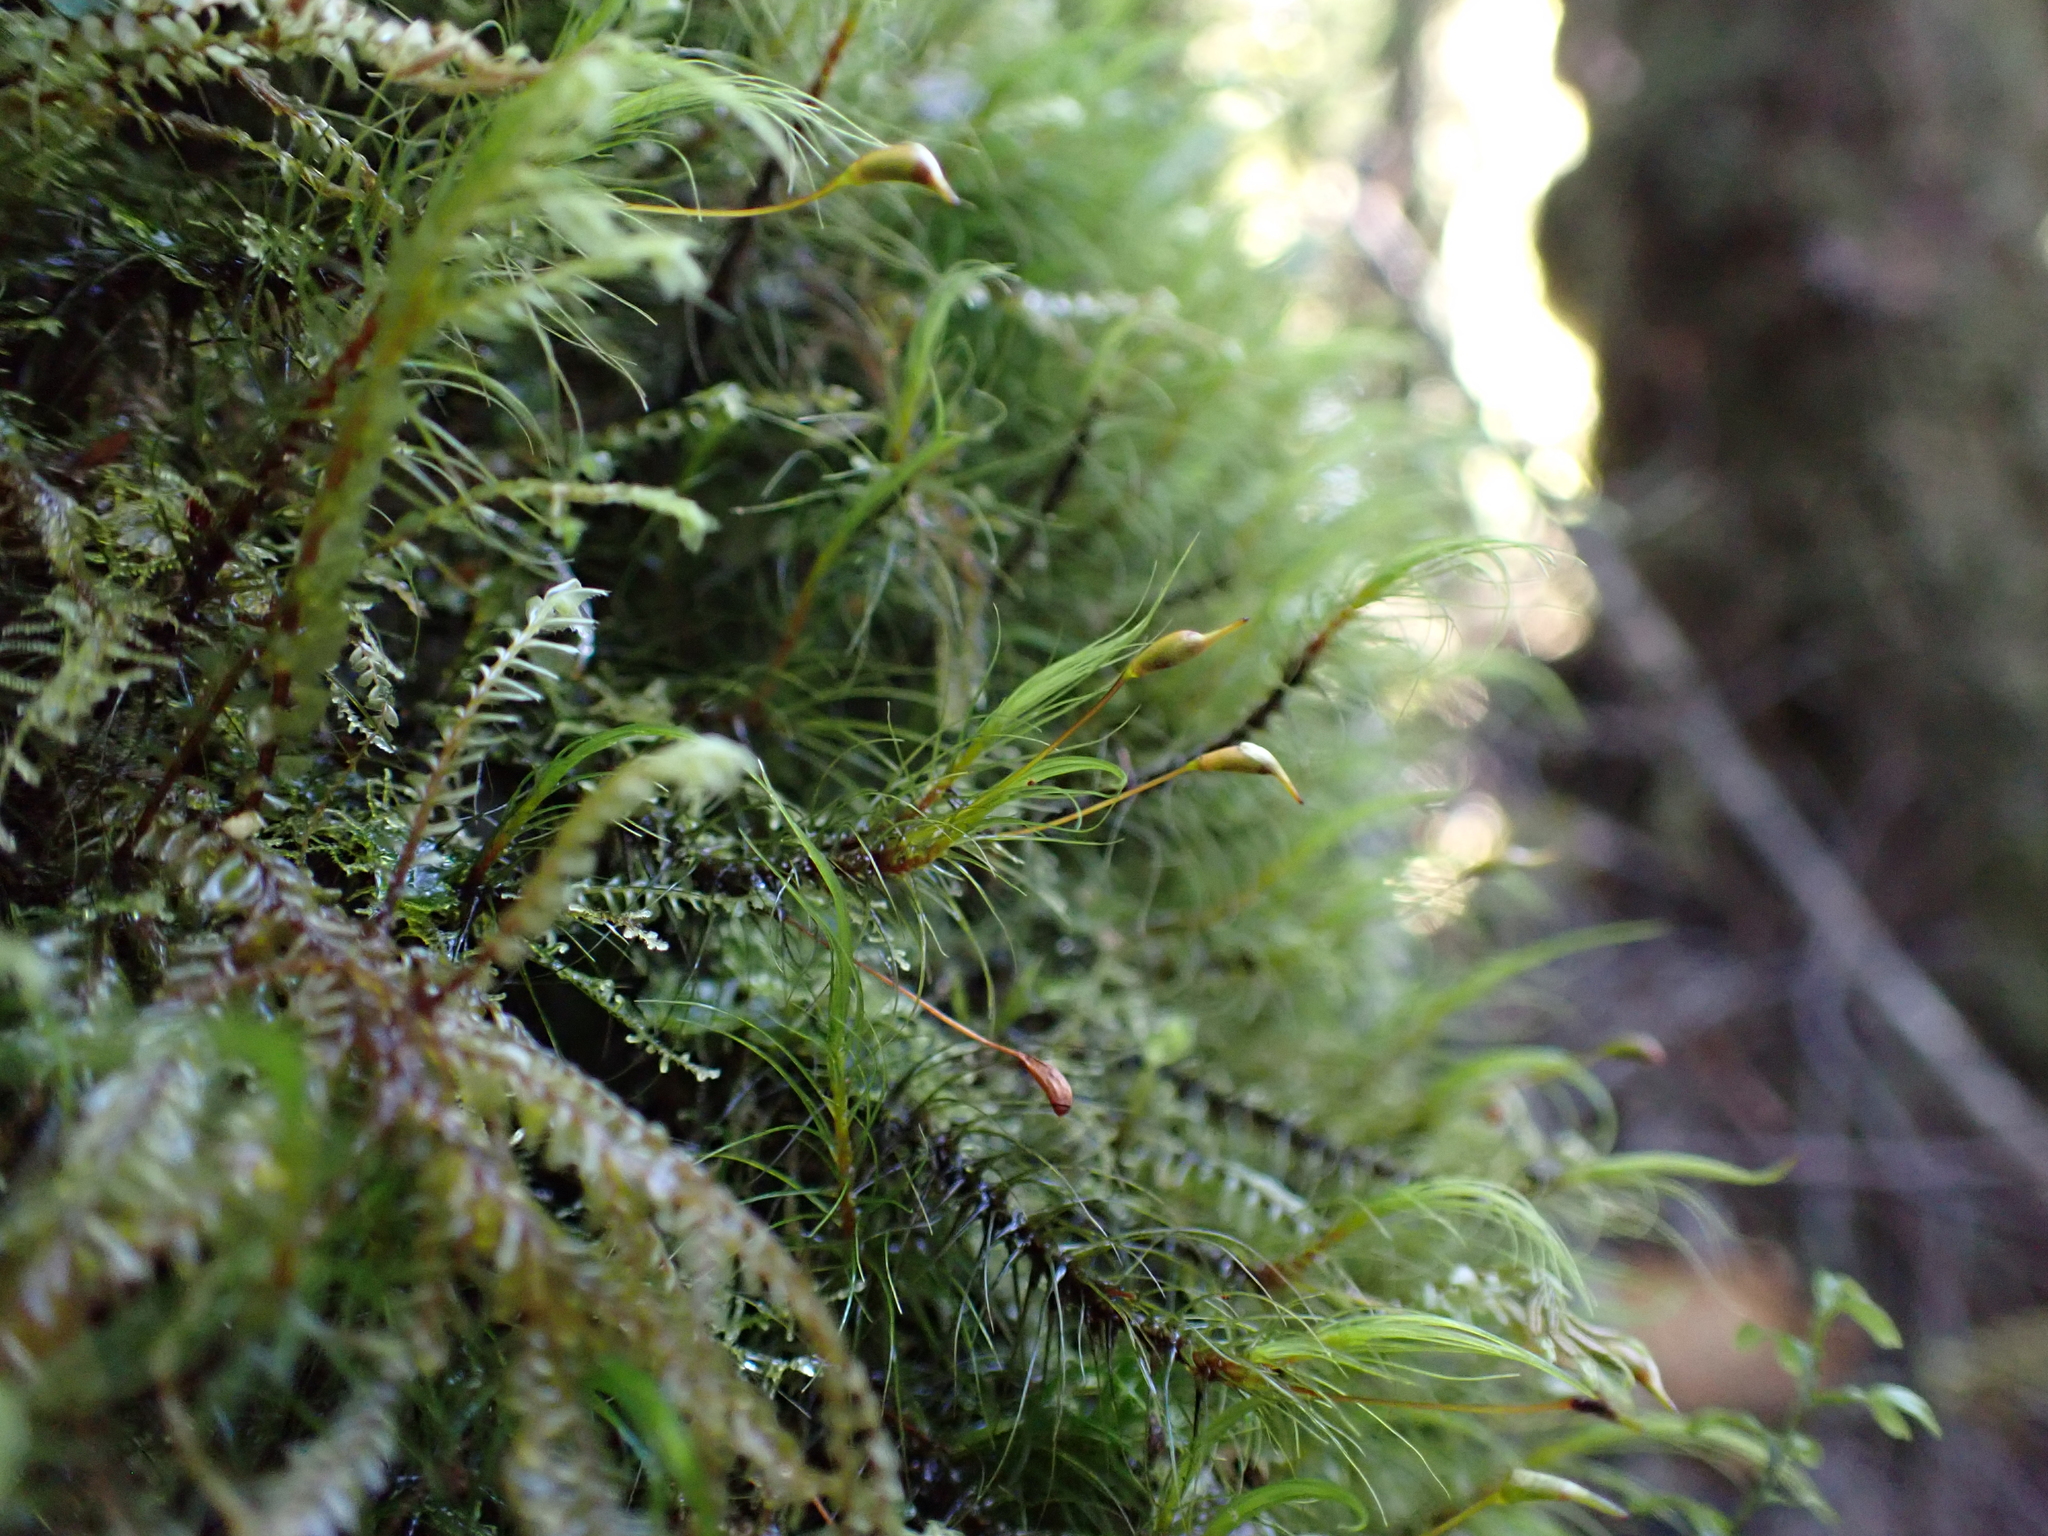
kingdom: Plantae
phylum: Bryophyta
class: Bryopsida
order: Dicranales
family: Dicranaceae
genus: Dicranoloma
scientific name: Dicranoloma menziesii
